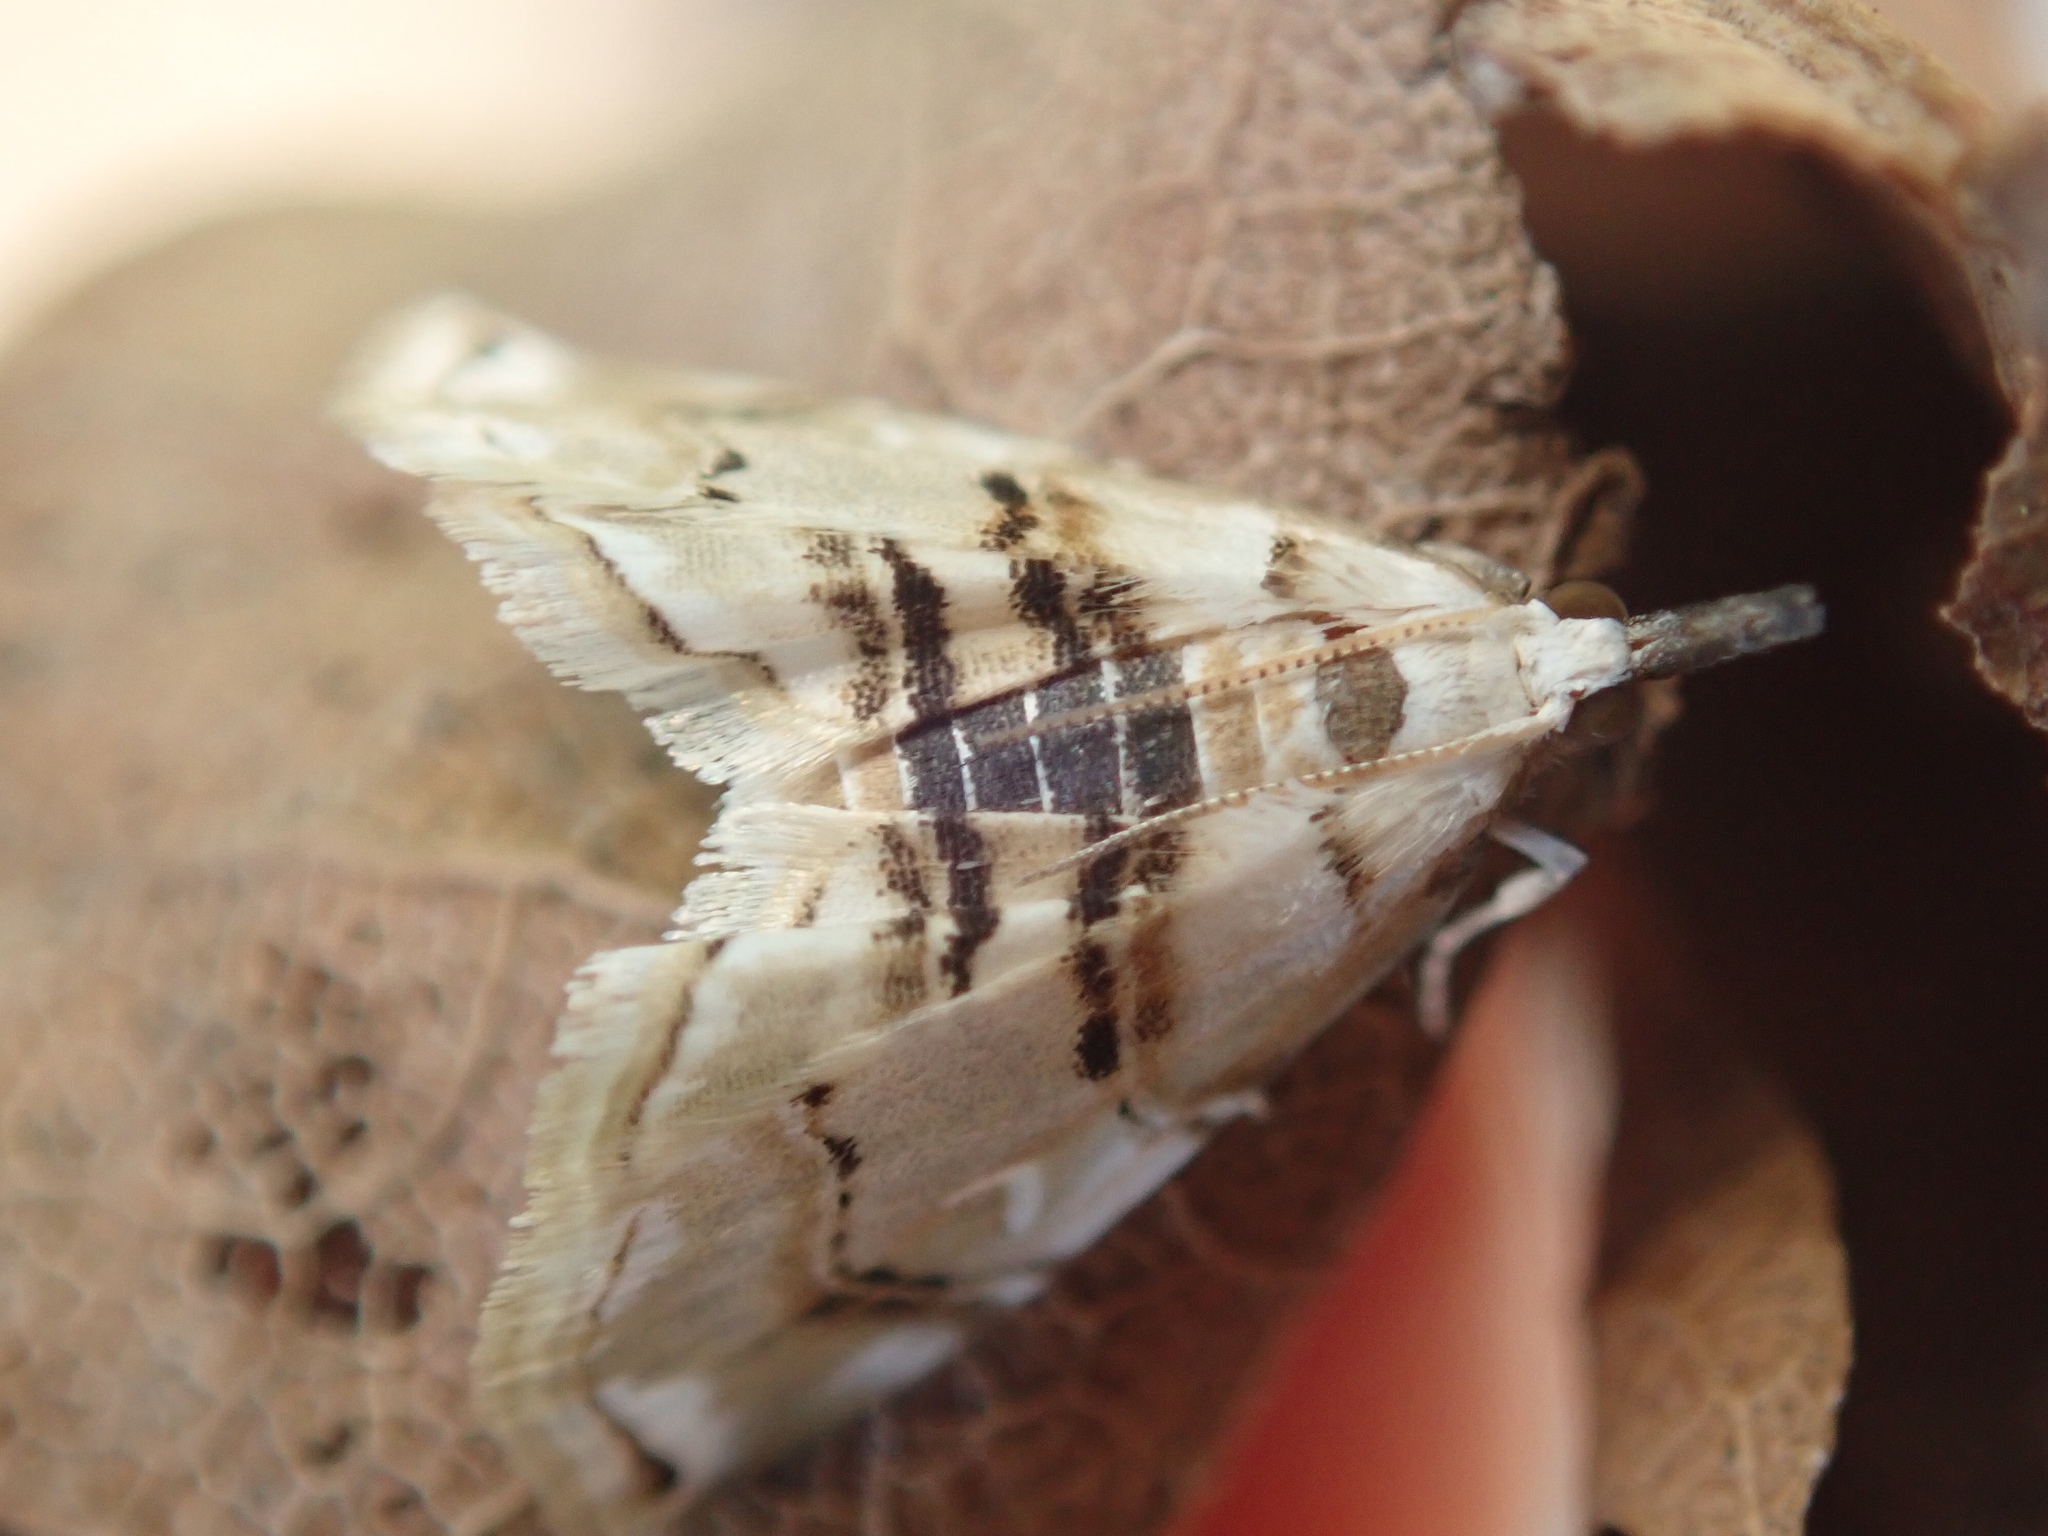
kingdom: Animalia
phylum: Arthropoda
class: Insecta
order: Lepidoptera
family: Crambidae
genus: Trichophysetis
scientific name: Trichophysetis
